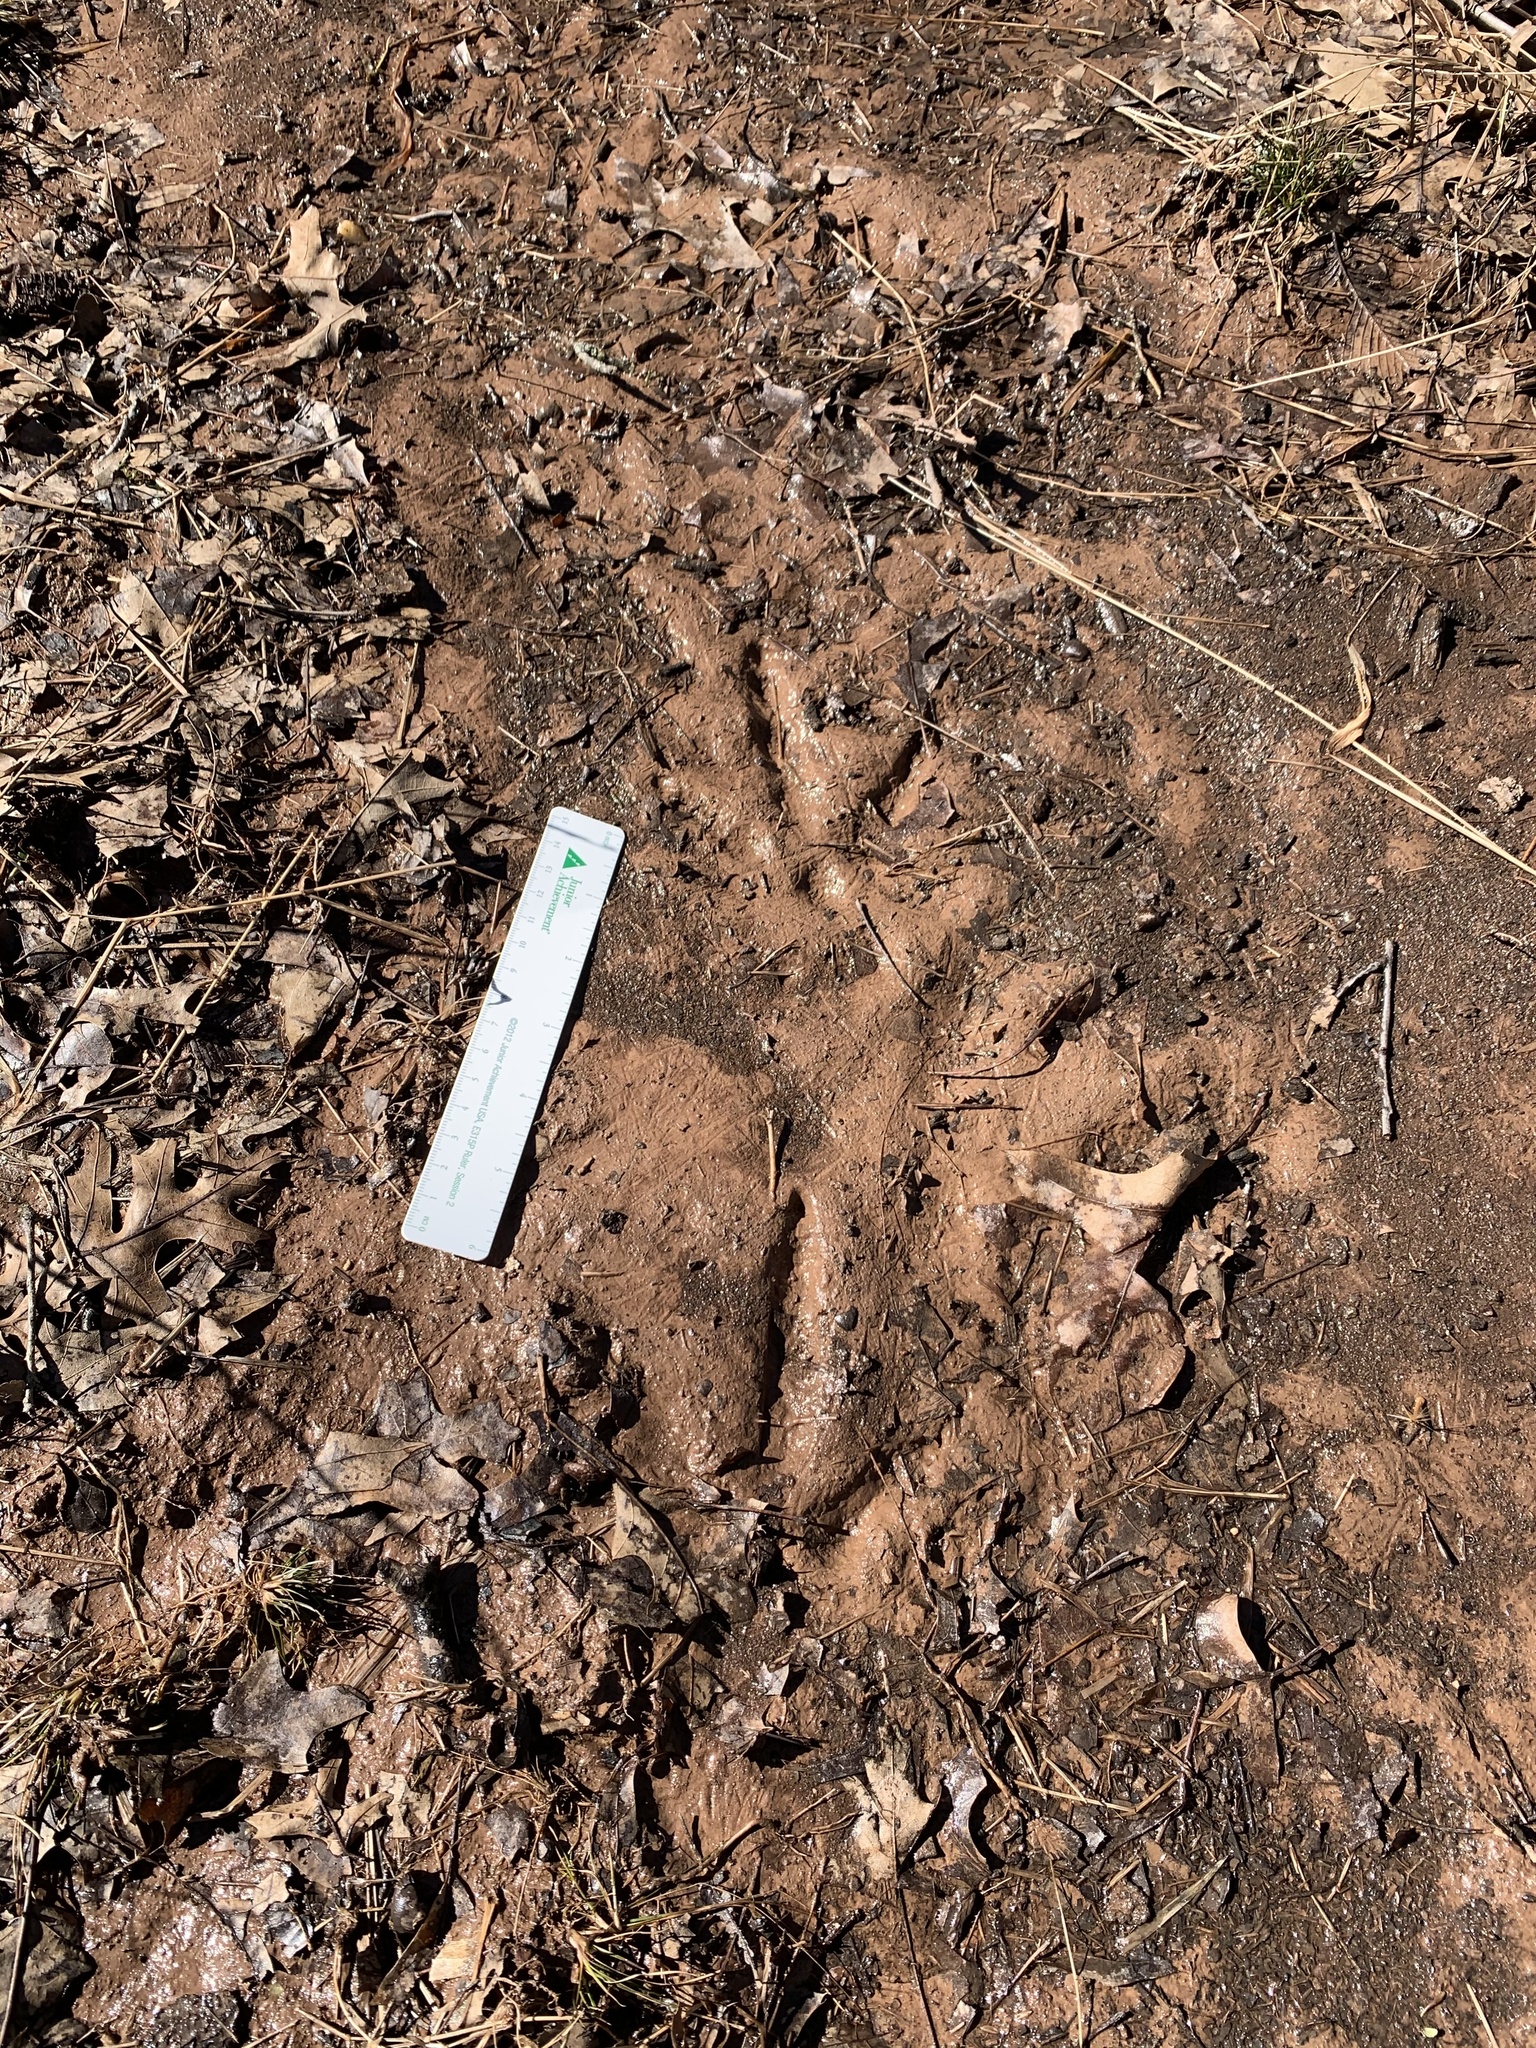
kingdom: Animalia
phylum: Chordata
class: Aves
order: Galliformes
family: Phasianidae
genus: Meleagris
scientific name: Meleagris gallopavo
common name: Wild turkey
